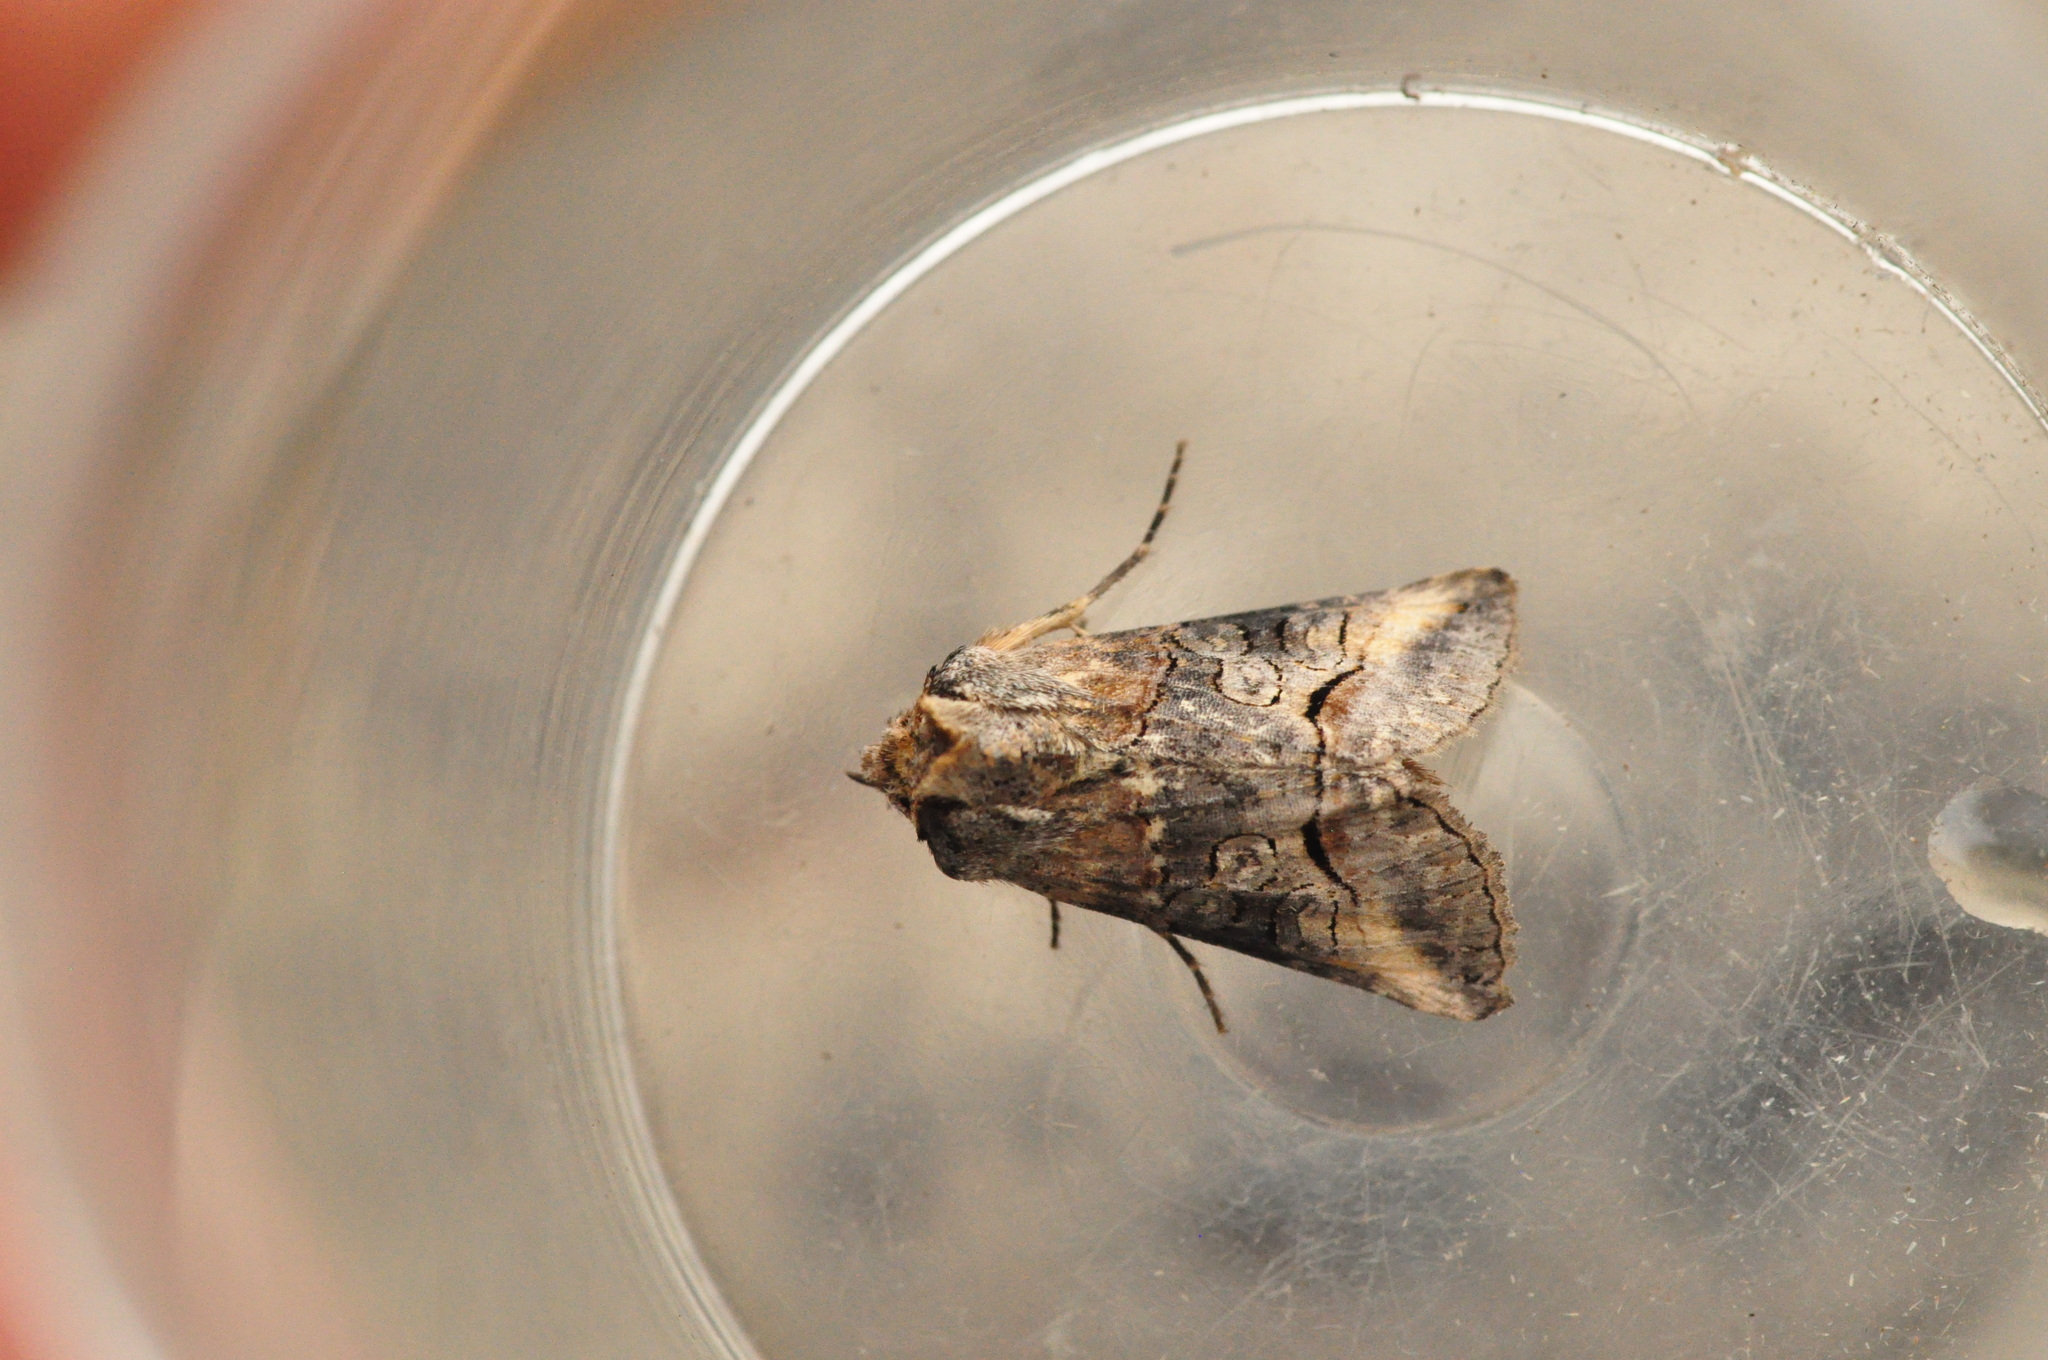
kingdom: Animalia
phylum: Arthropoda
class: Insecta
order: Lepidoptera
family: Noctuidae
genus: Abrostola
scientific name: Abrostola canariensis
